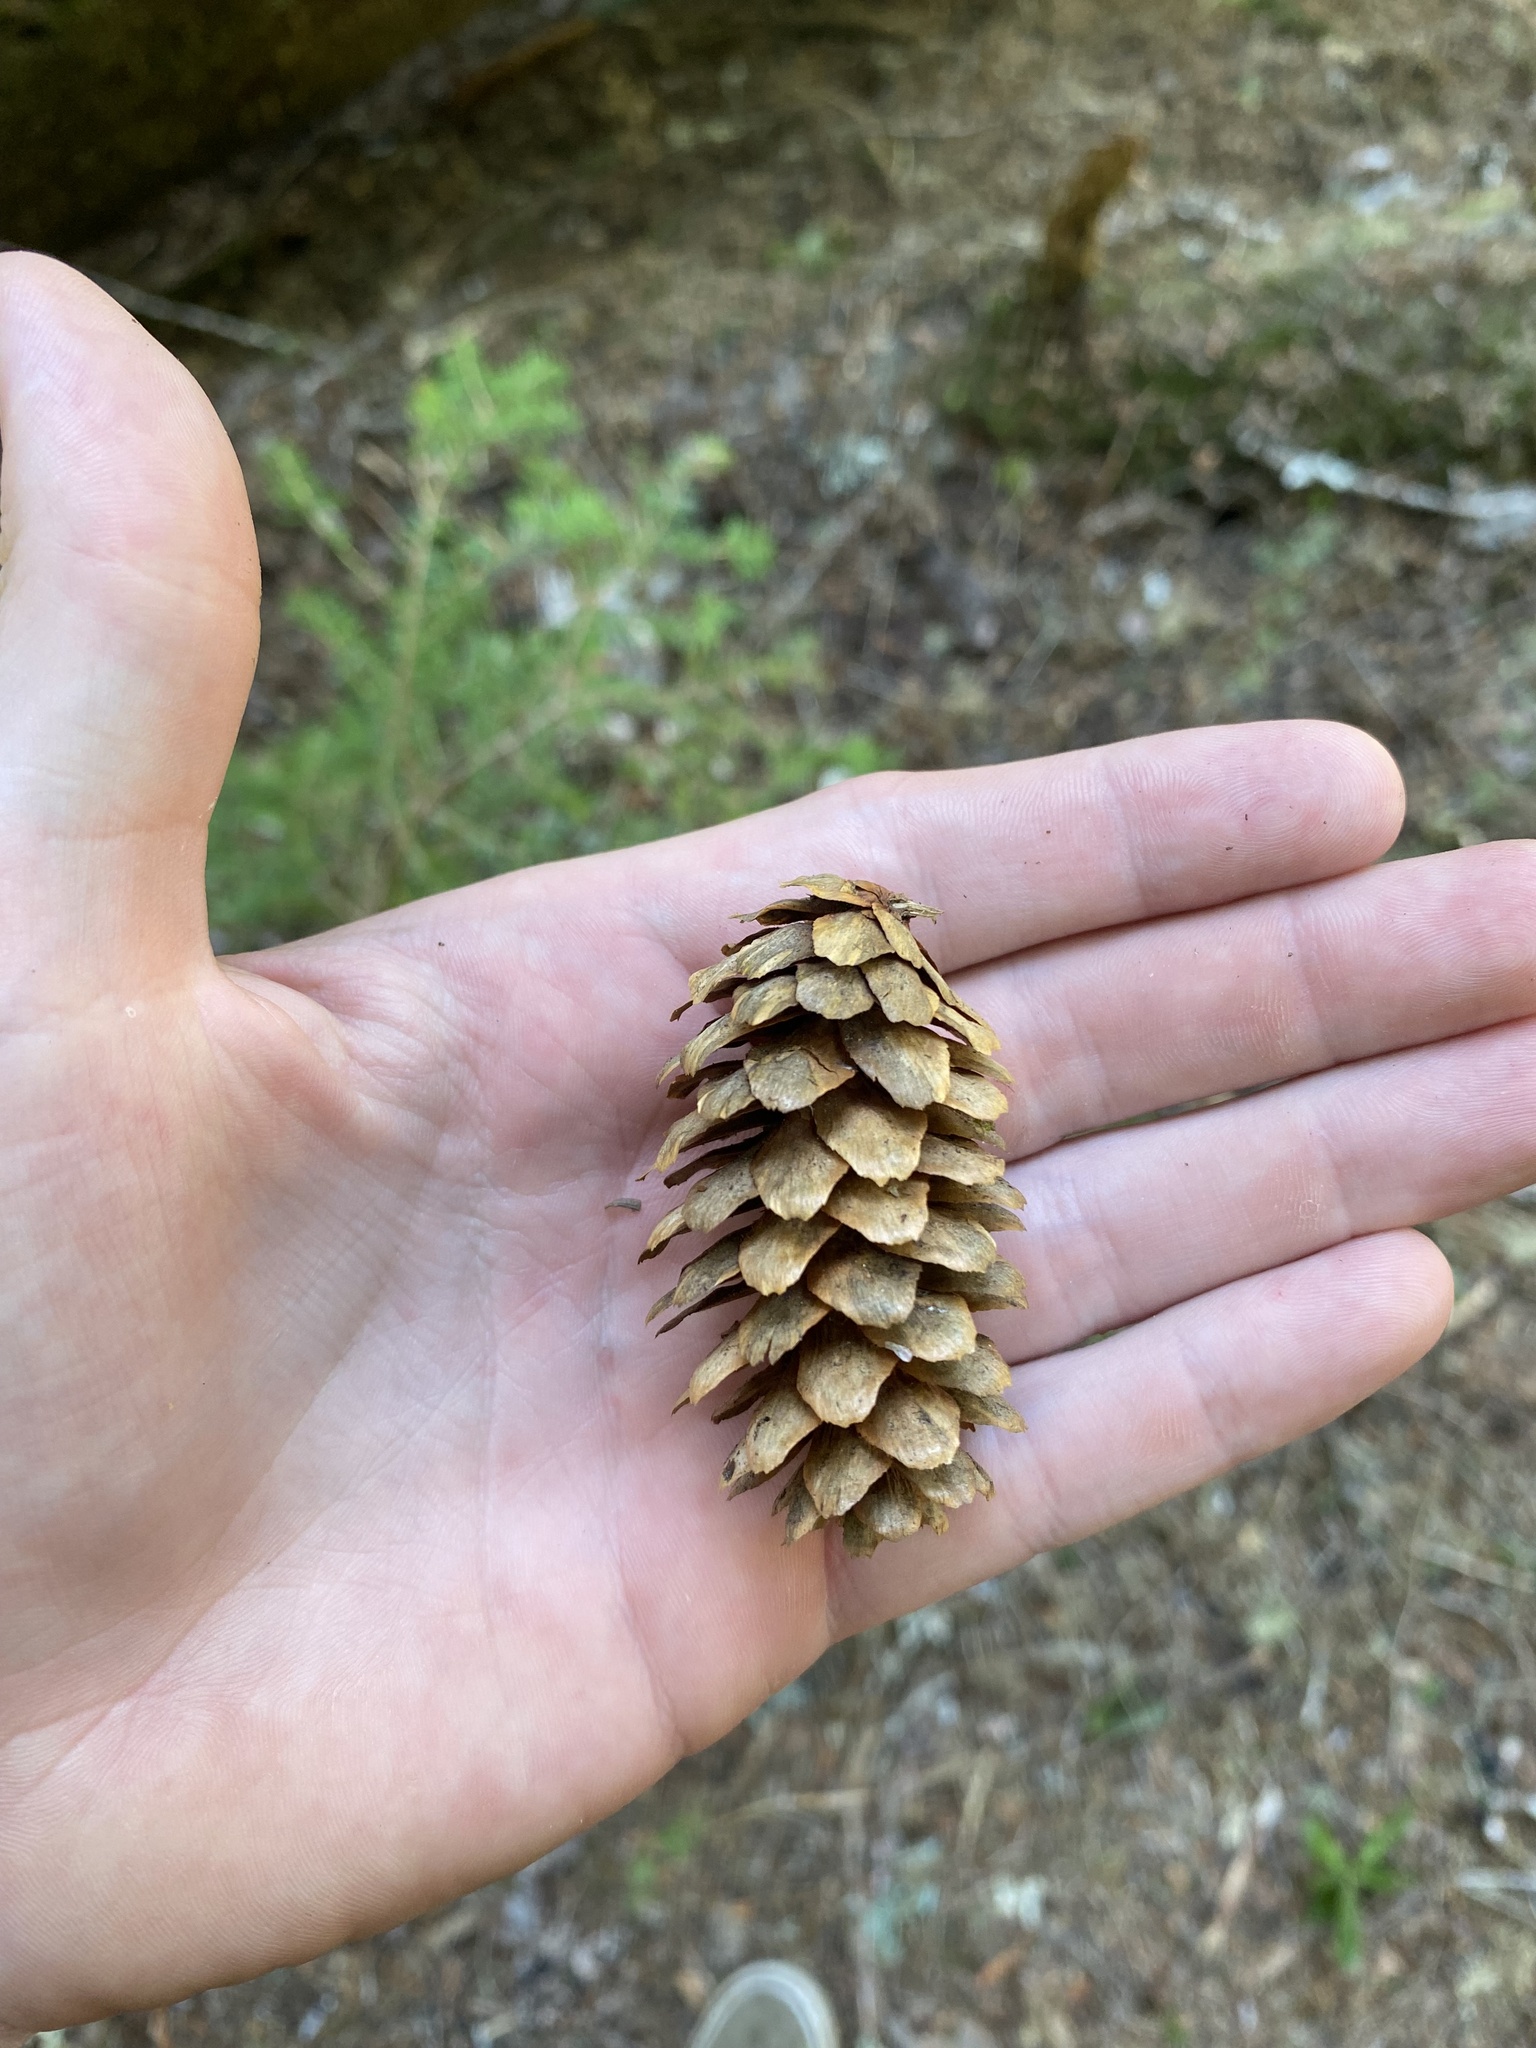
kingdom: Plantae
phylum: Tracheophyta
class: Pinopsida
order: Pinales
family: Pinaceae
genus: Picea
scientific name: Picea engelmannii
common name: Engelmann spruce
